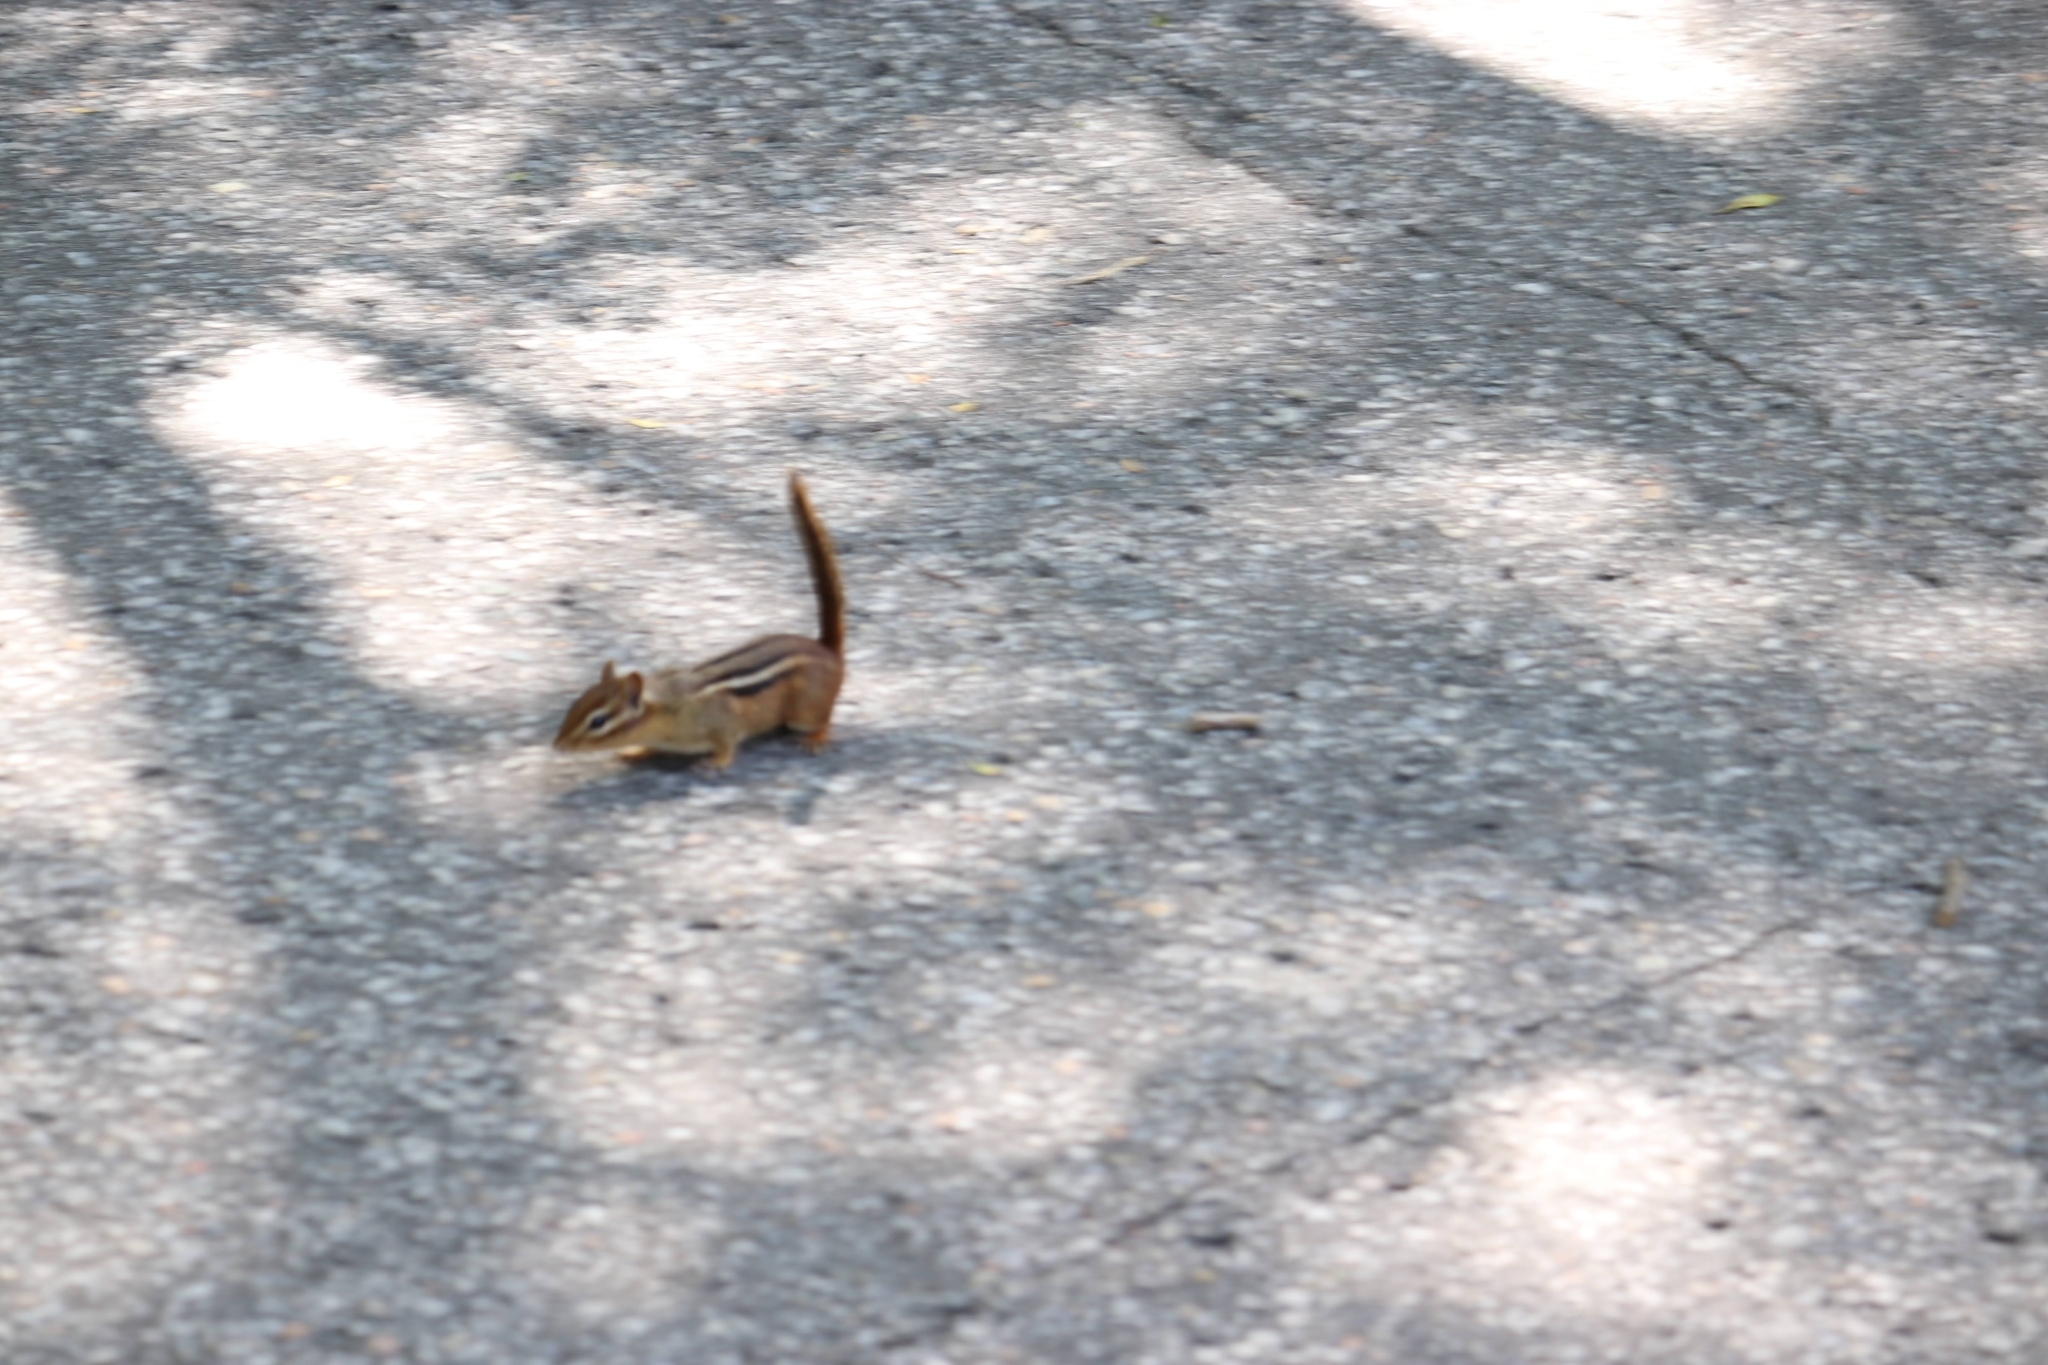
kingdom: Animalia
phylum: Chordata
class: Mammalia
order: Rodentia
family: Sciuridae
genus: Tamias
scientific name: Tamias striatus
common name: Eastern chipmunk
